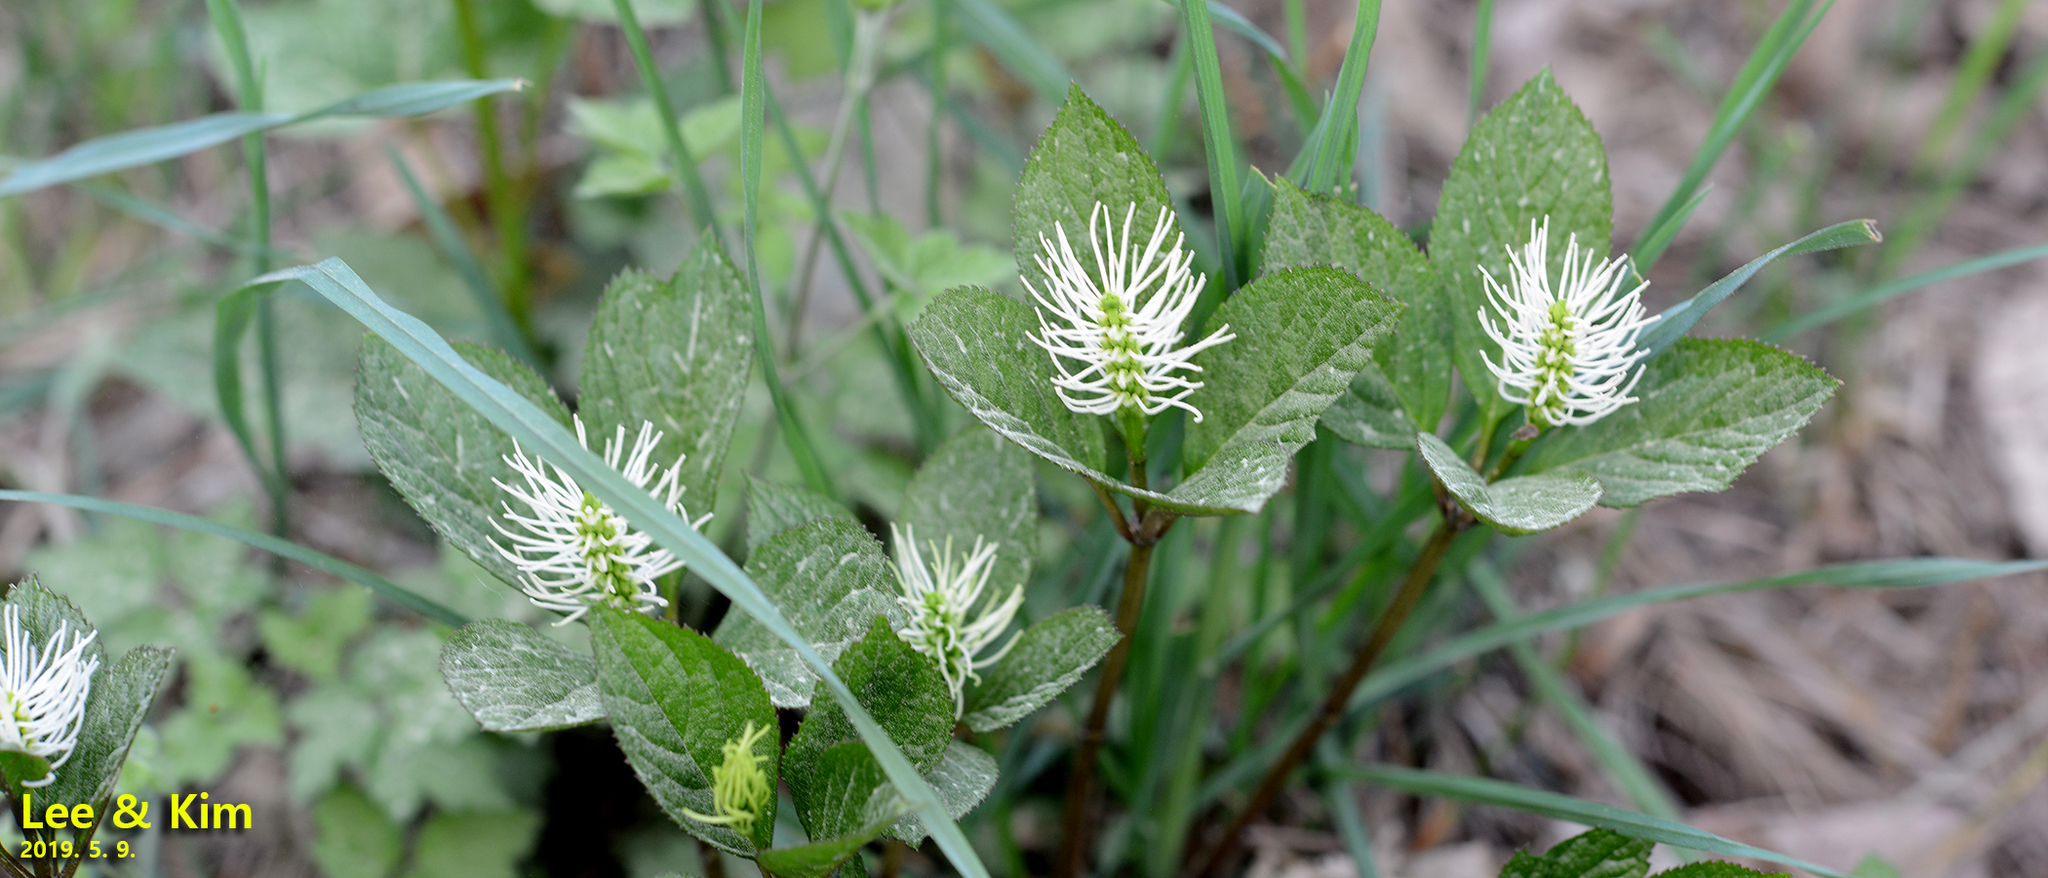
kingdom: Plantae
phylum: Tracheophyta
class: Magnoliopsida
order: Chloranthales
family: Chloranthaceae
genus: Chloranthus
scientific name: Chloranthus fortunei
